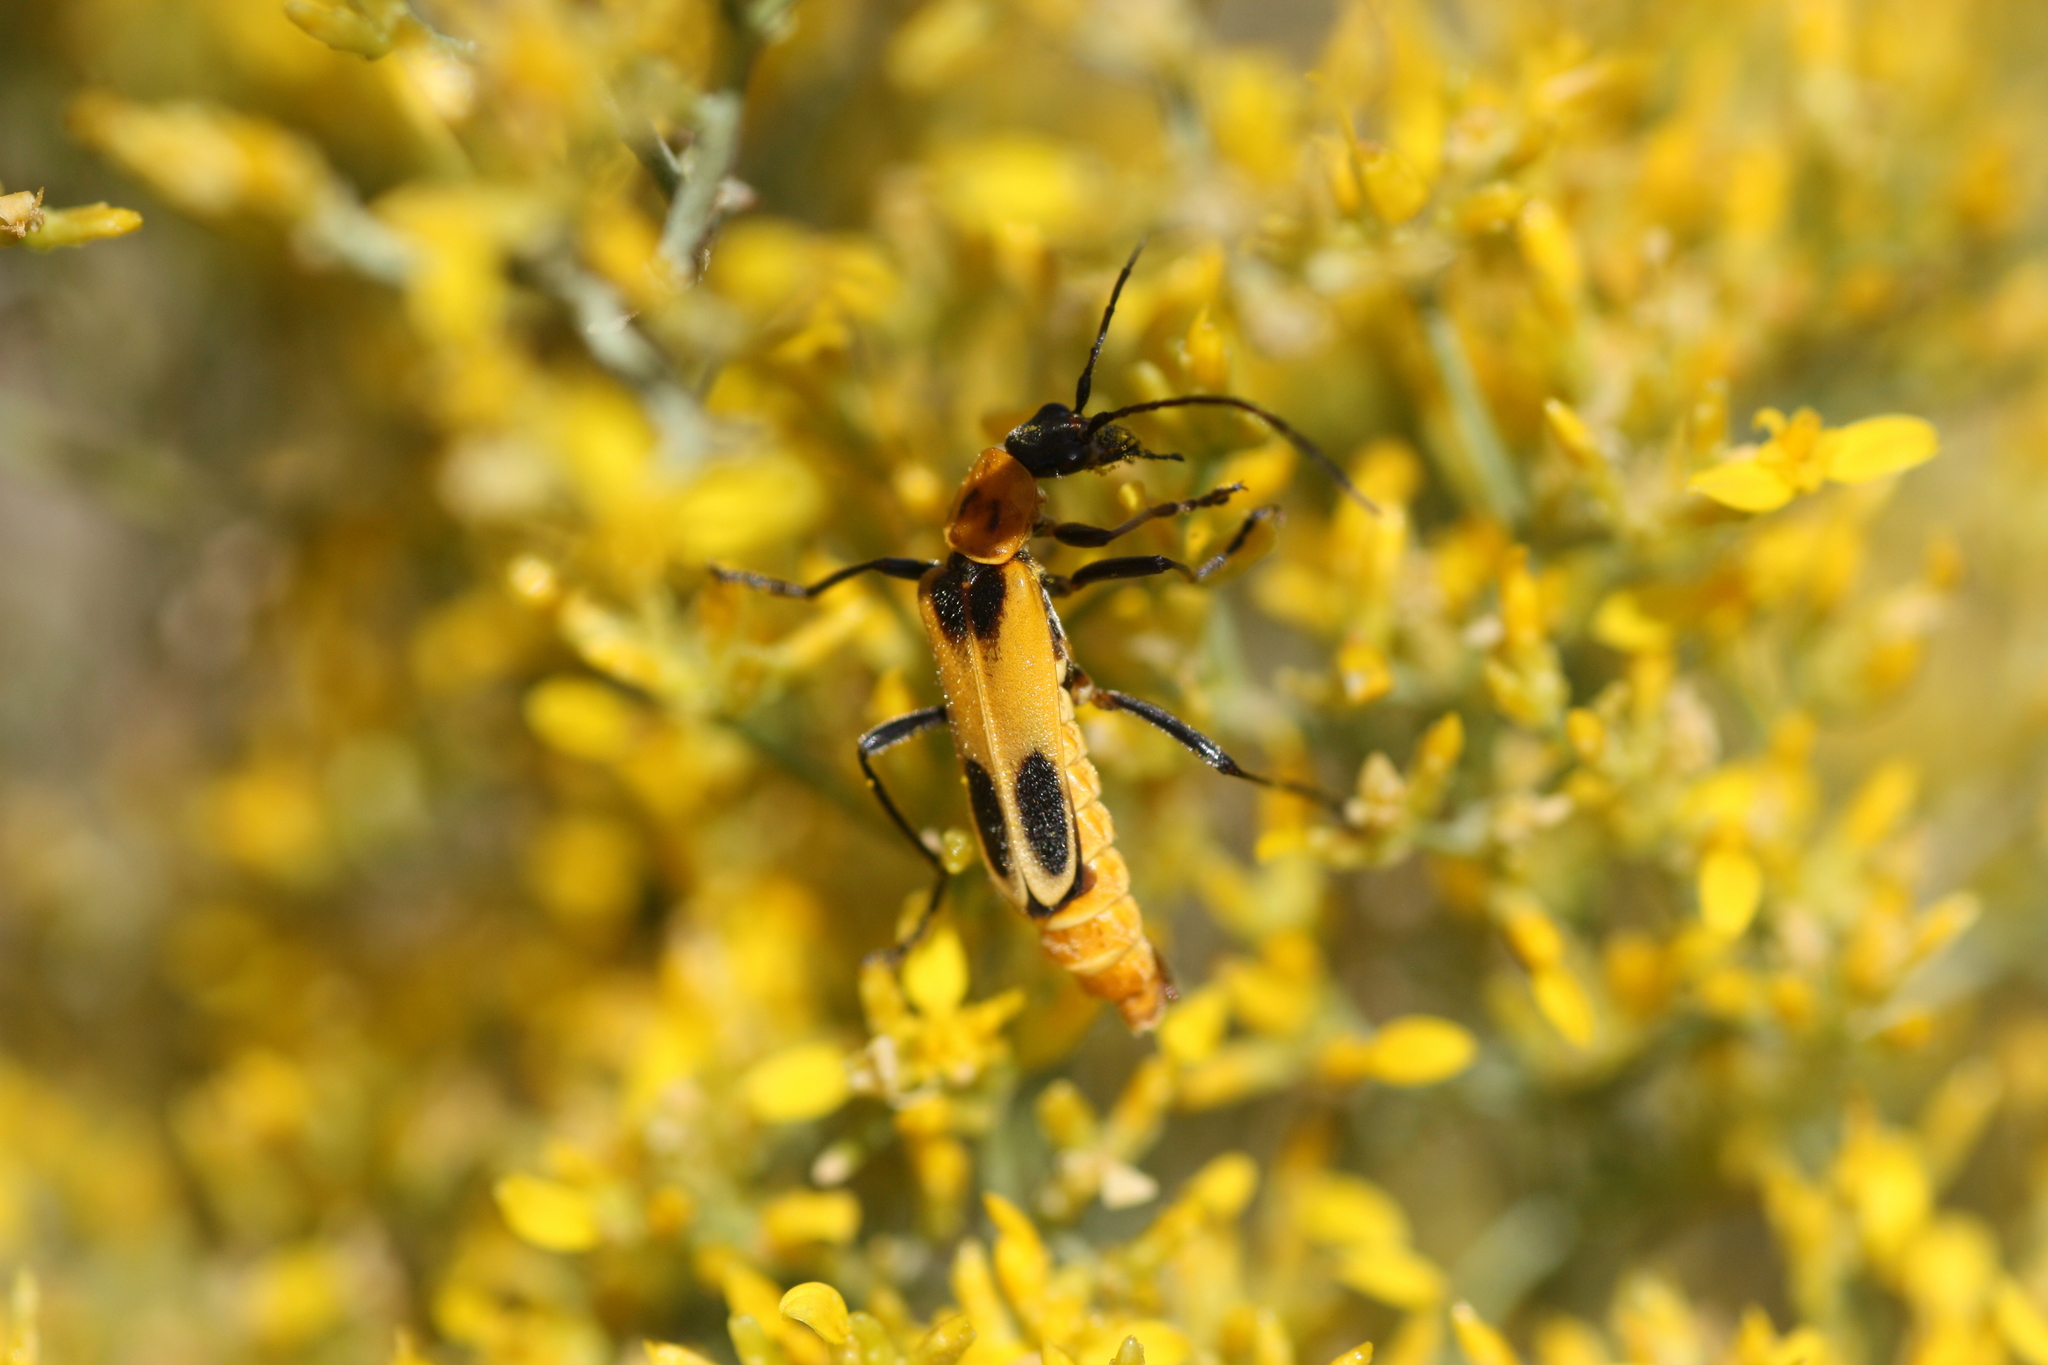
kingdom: Animalia
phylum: Arthropoda
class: Insecta
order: Coleoptera
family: Cantharidae
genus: Chauliognathus
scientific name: Chauliognathus omissus
